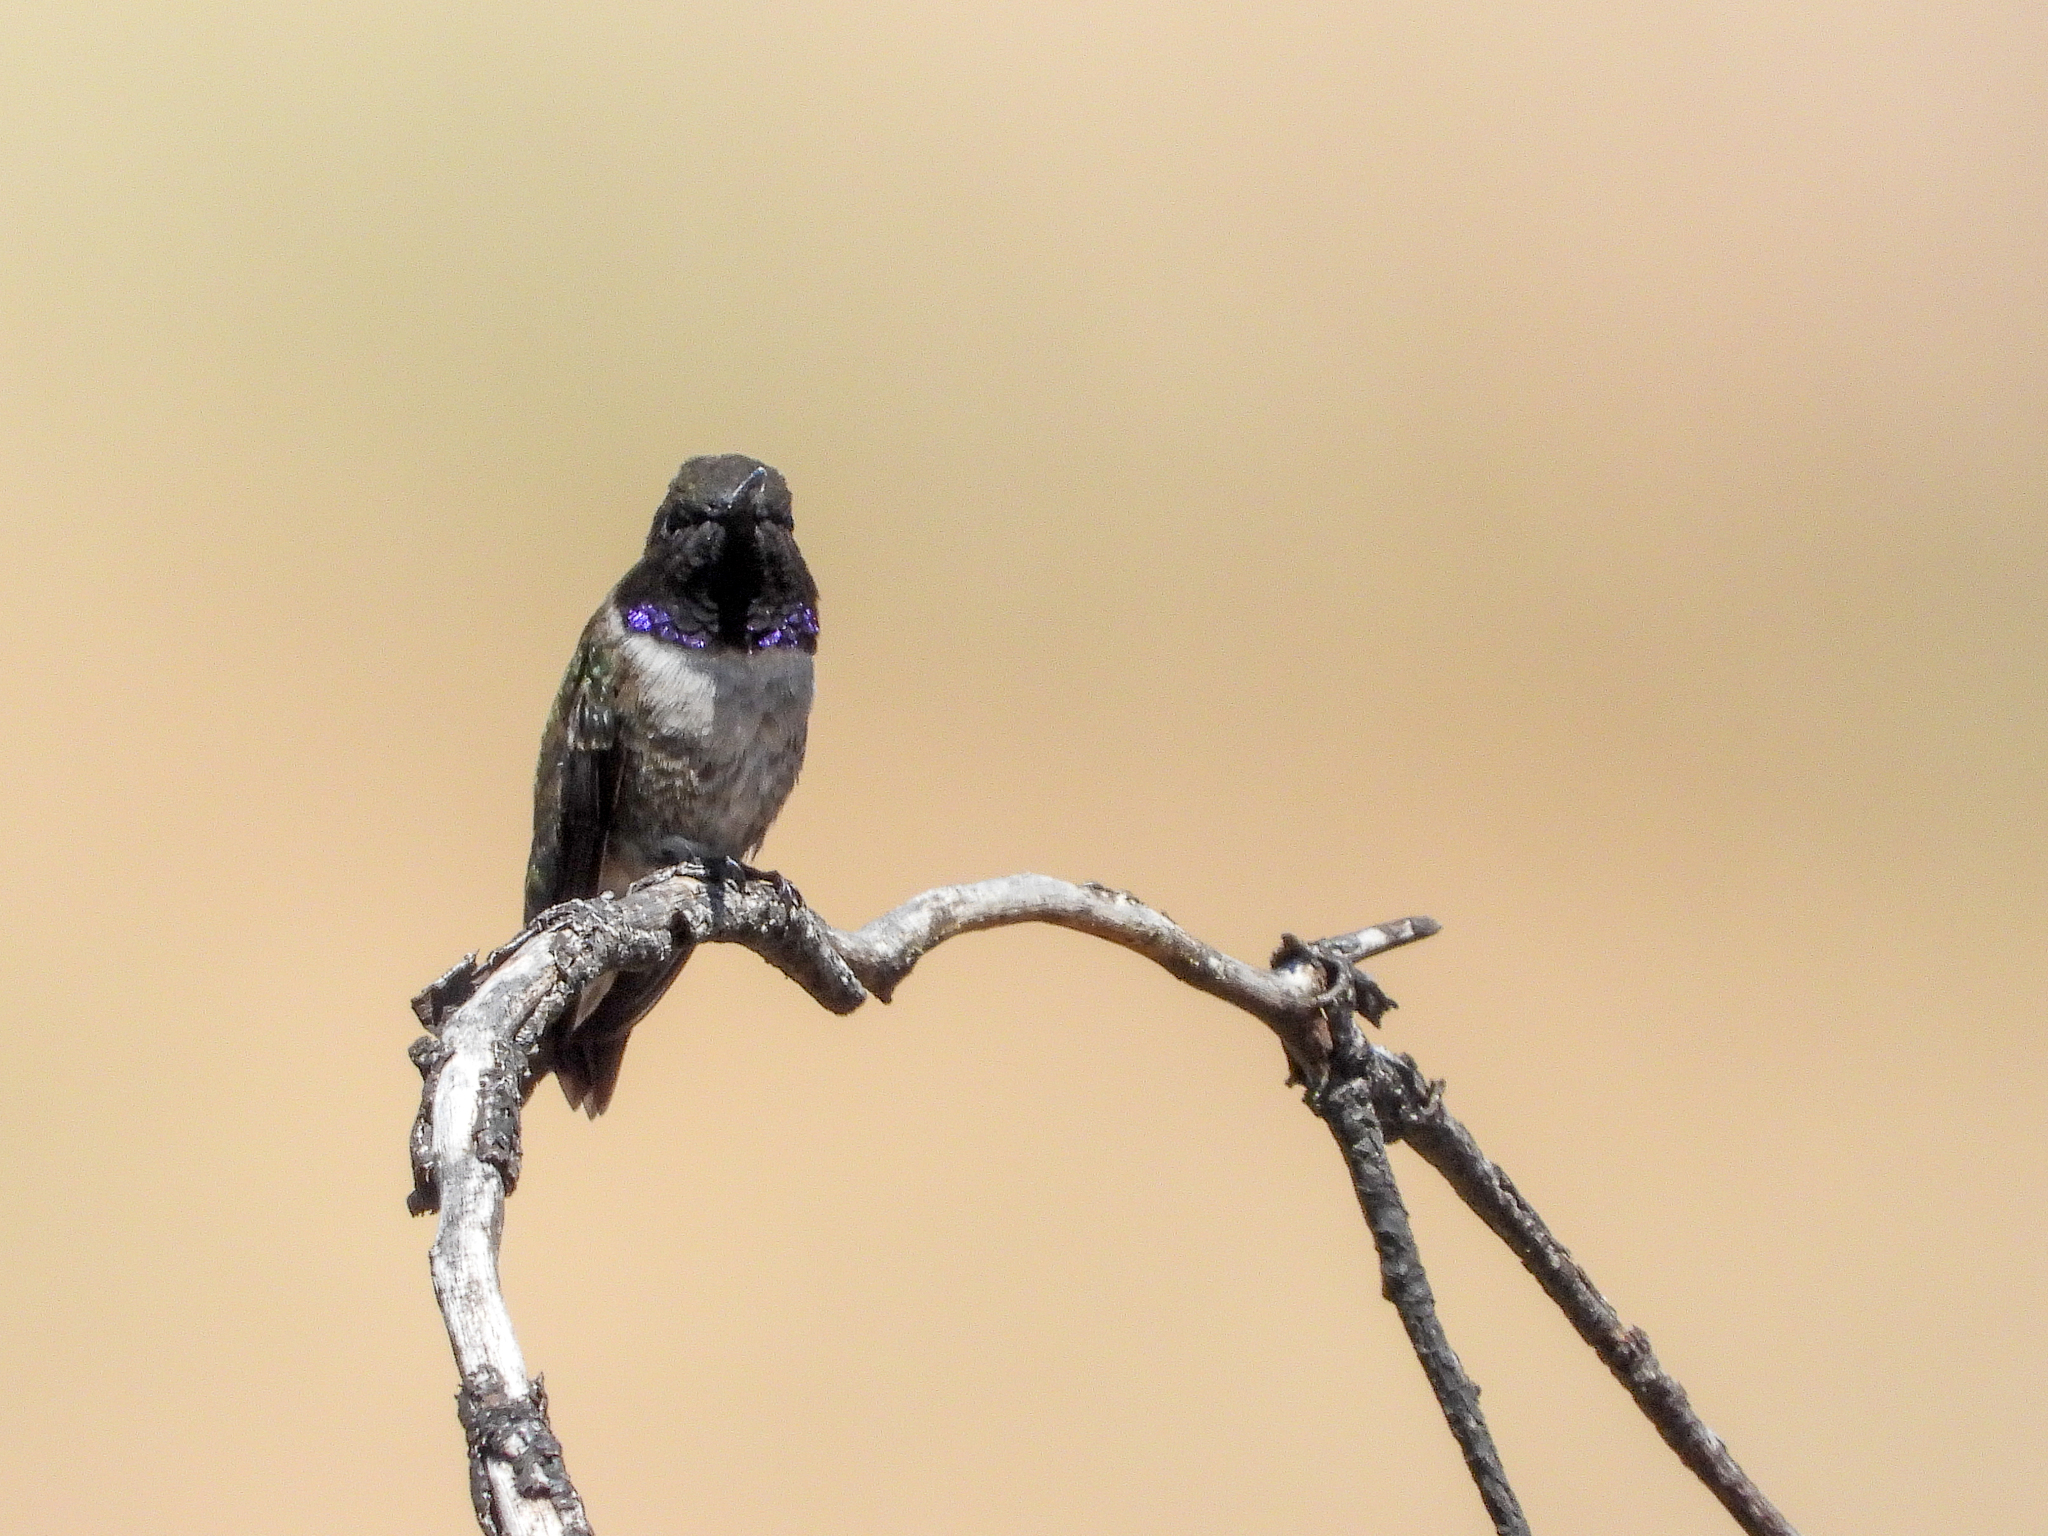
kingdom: Animalia
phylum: Chordata
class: Aves
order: Apodiformes
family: Trochilidae
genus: Archilochus
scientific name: Archilochus alexandri
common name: Black-chinned hummingbird
